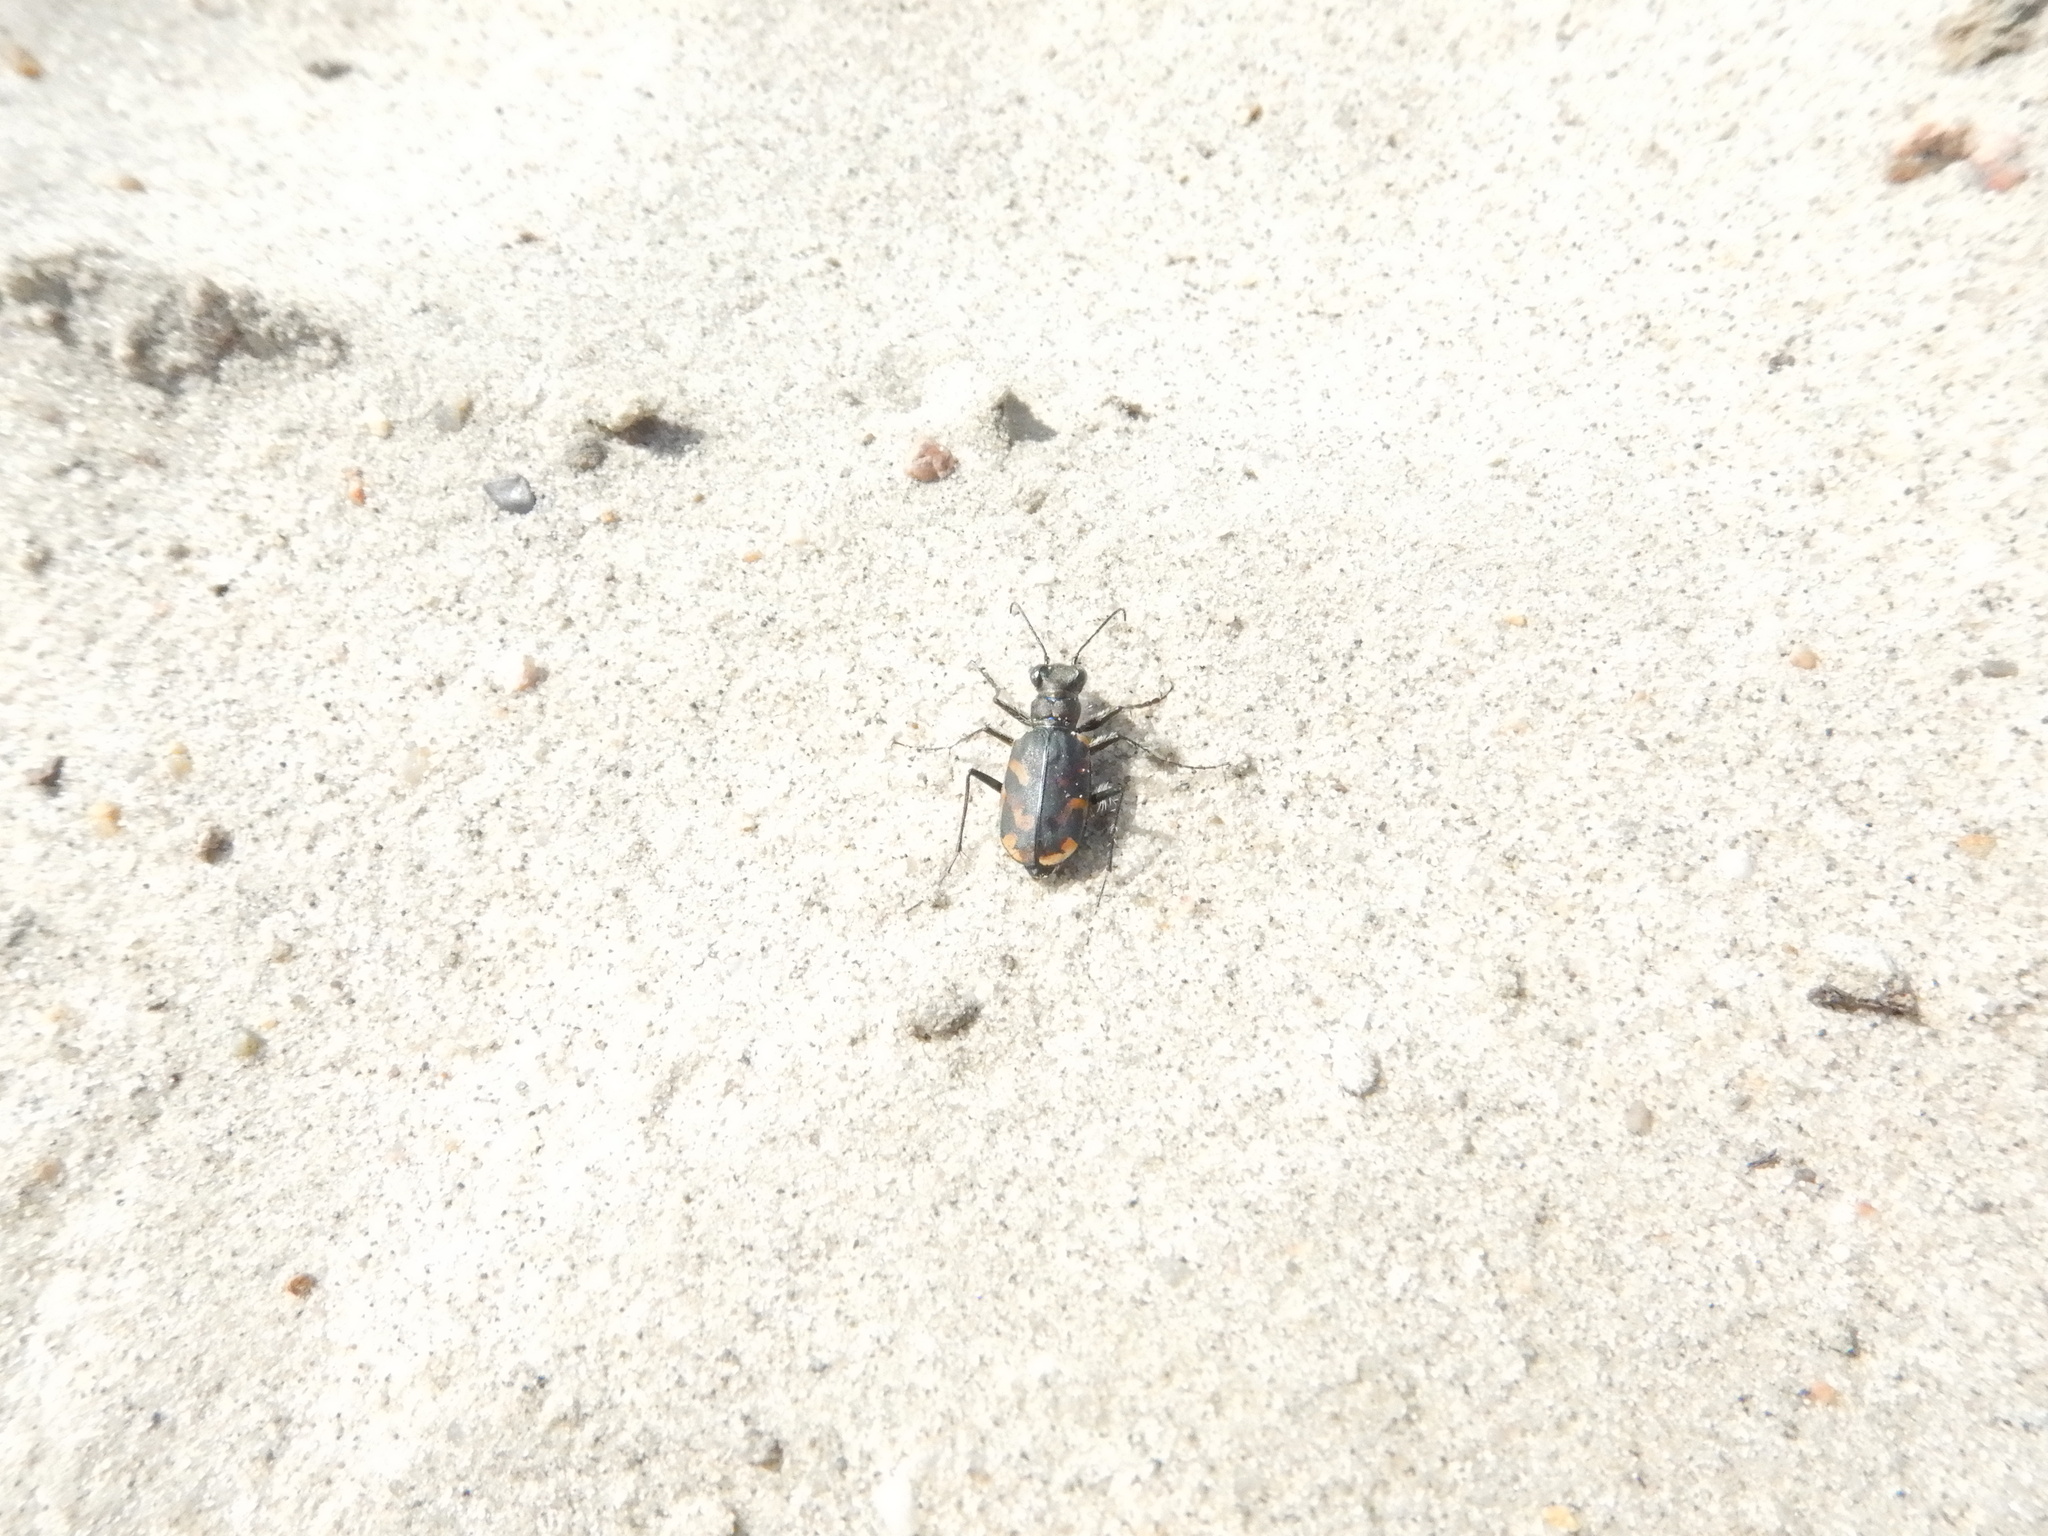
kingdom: Animalia
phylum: Arthropoda
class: Insecta
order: Coleoptera
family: Carabidae
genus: Cicindela
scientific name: Cicindela tranquebarica
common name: Oblique-lined tiger beetle
